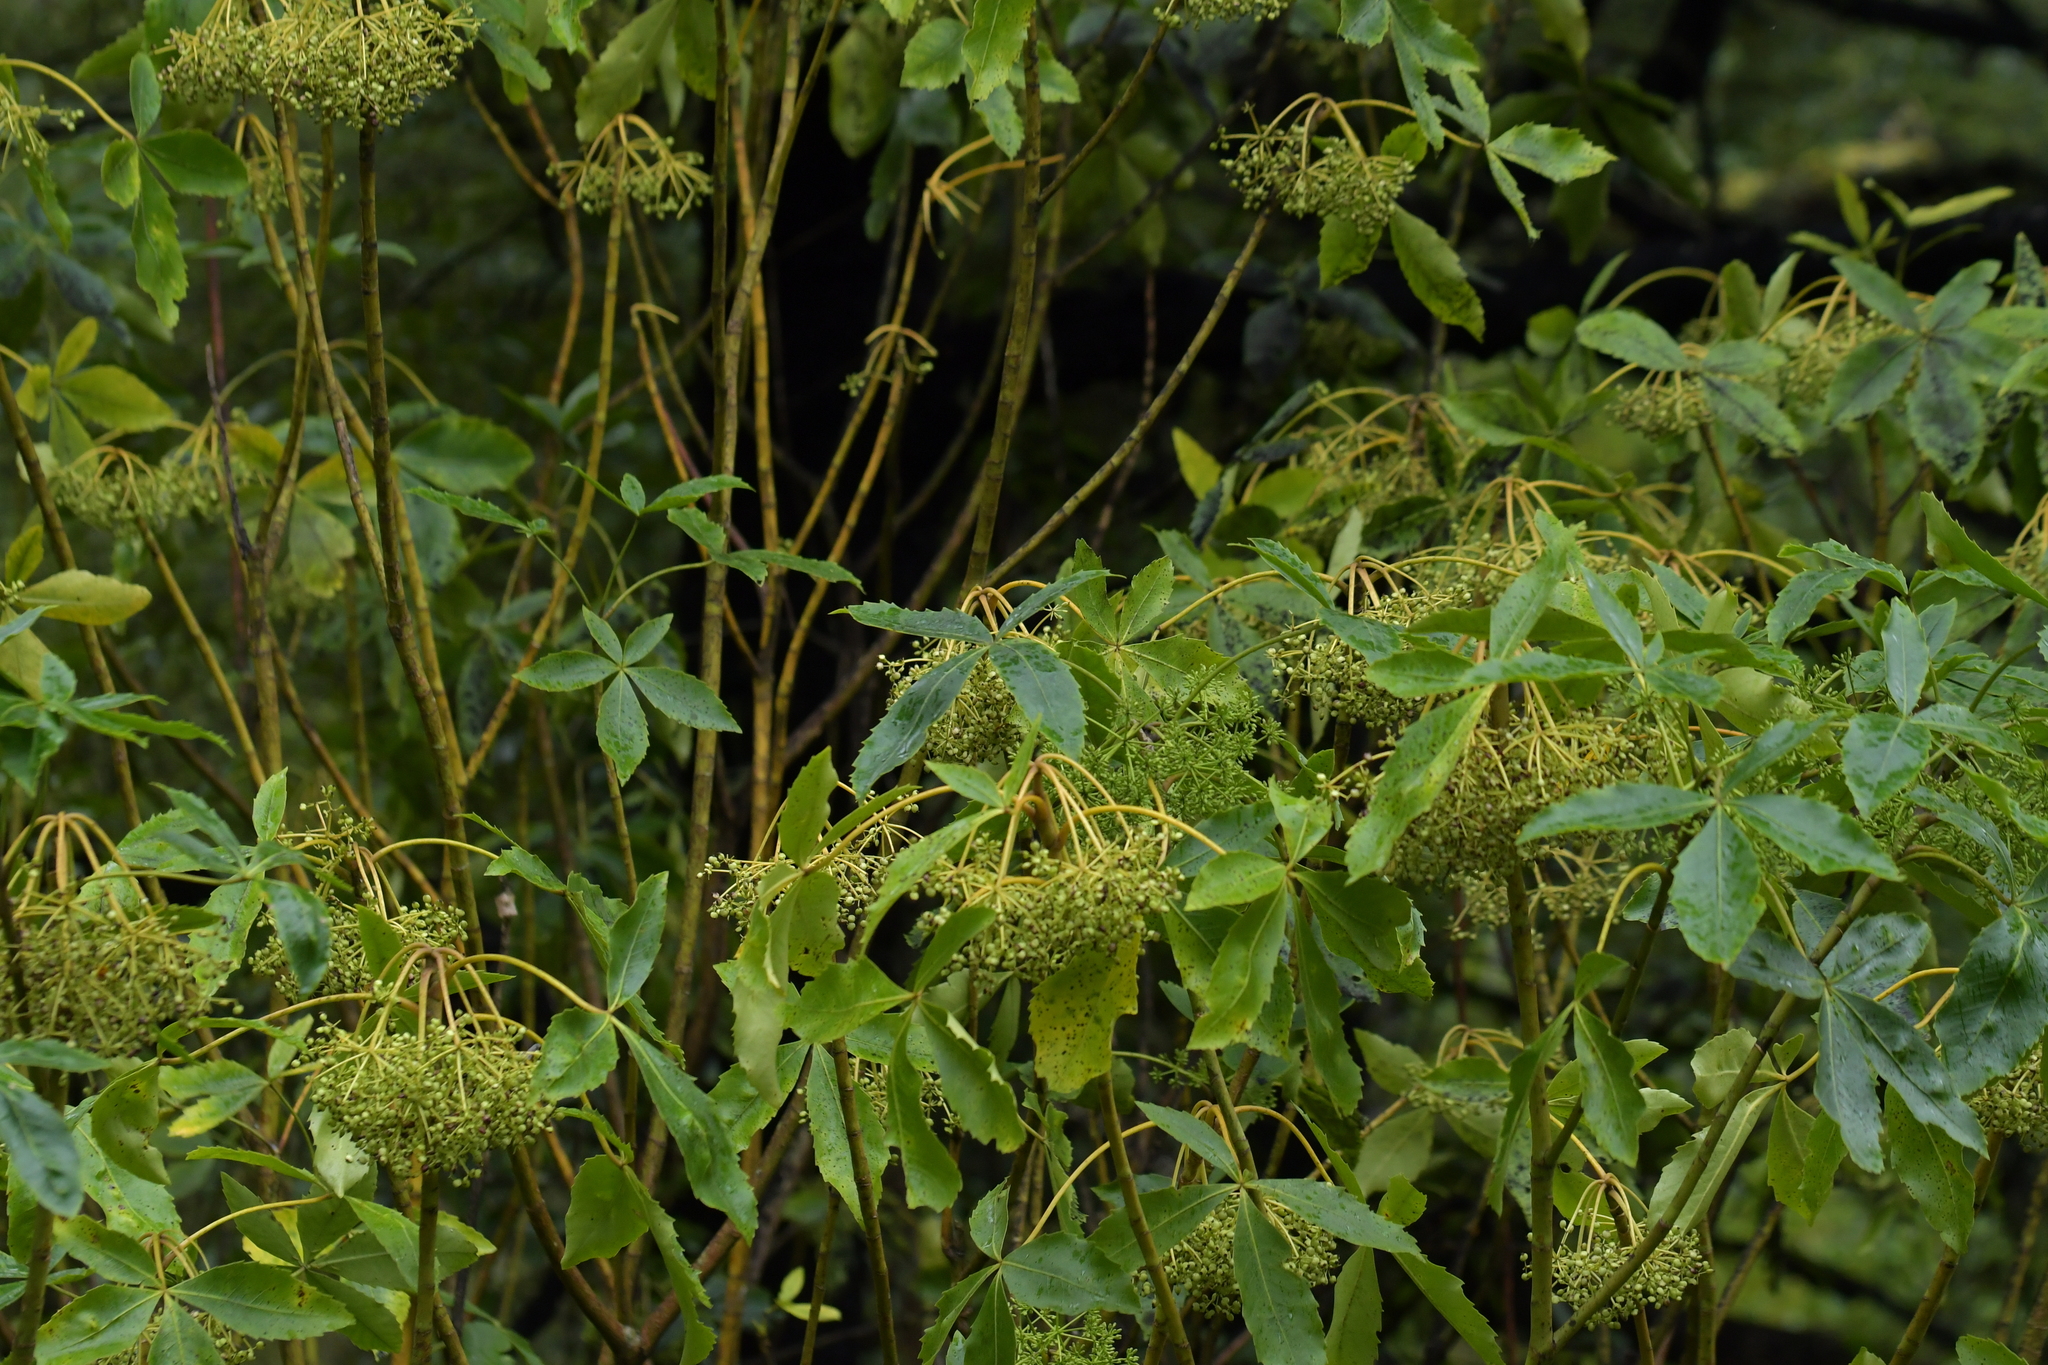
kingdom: Plantae
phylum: Tracheophyta
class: Magnoliopsida
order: Apiales
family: Araliaceae
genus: Neopanax
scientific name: Neopanax arboreus
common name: Five-fingers
